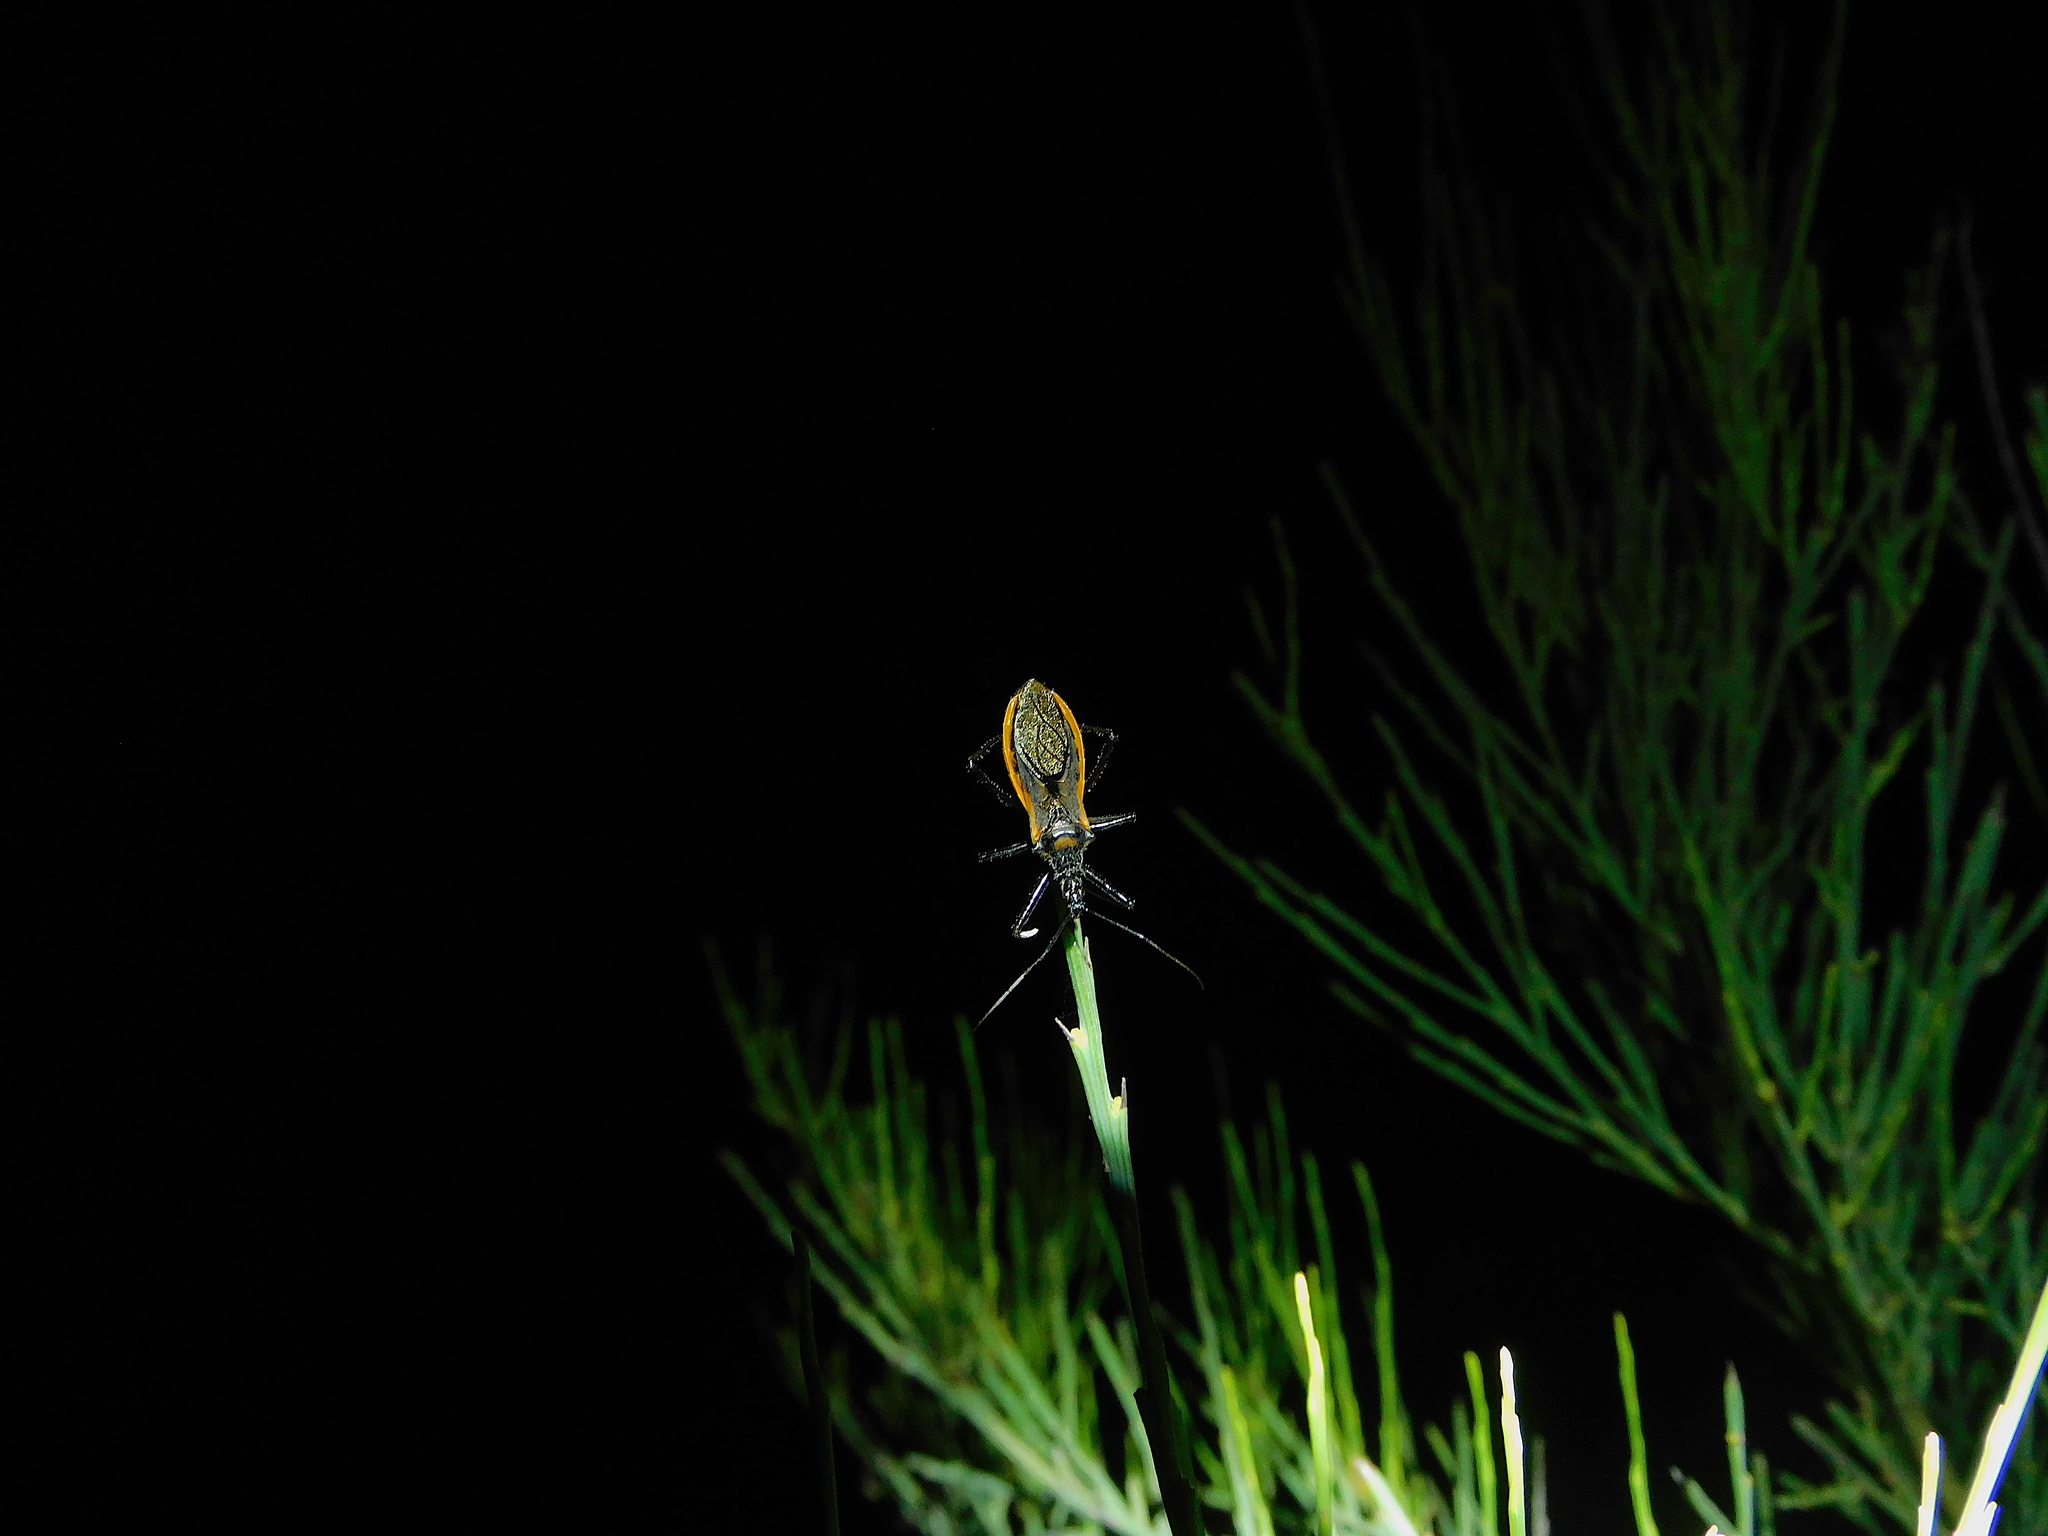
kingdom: Animalia
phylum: Arthropoda
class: Insecta
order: Hemiptera
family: Reduviidae
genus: Gminatus
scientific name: Gminatus australis
